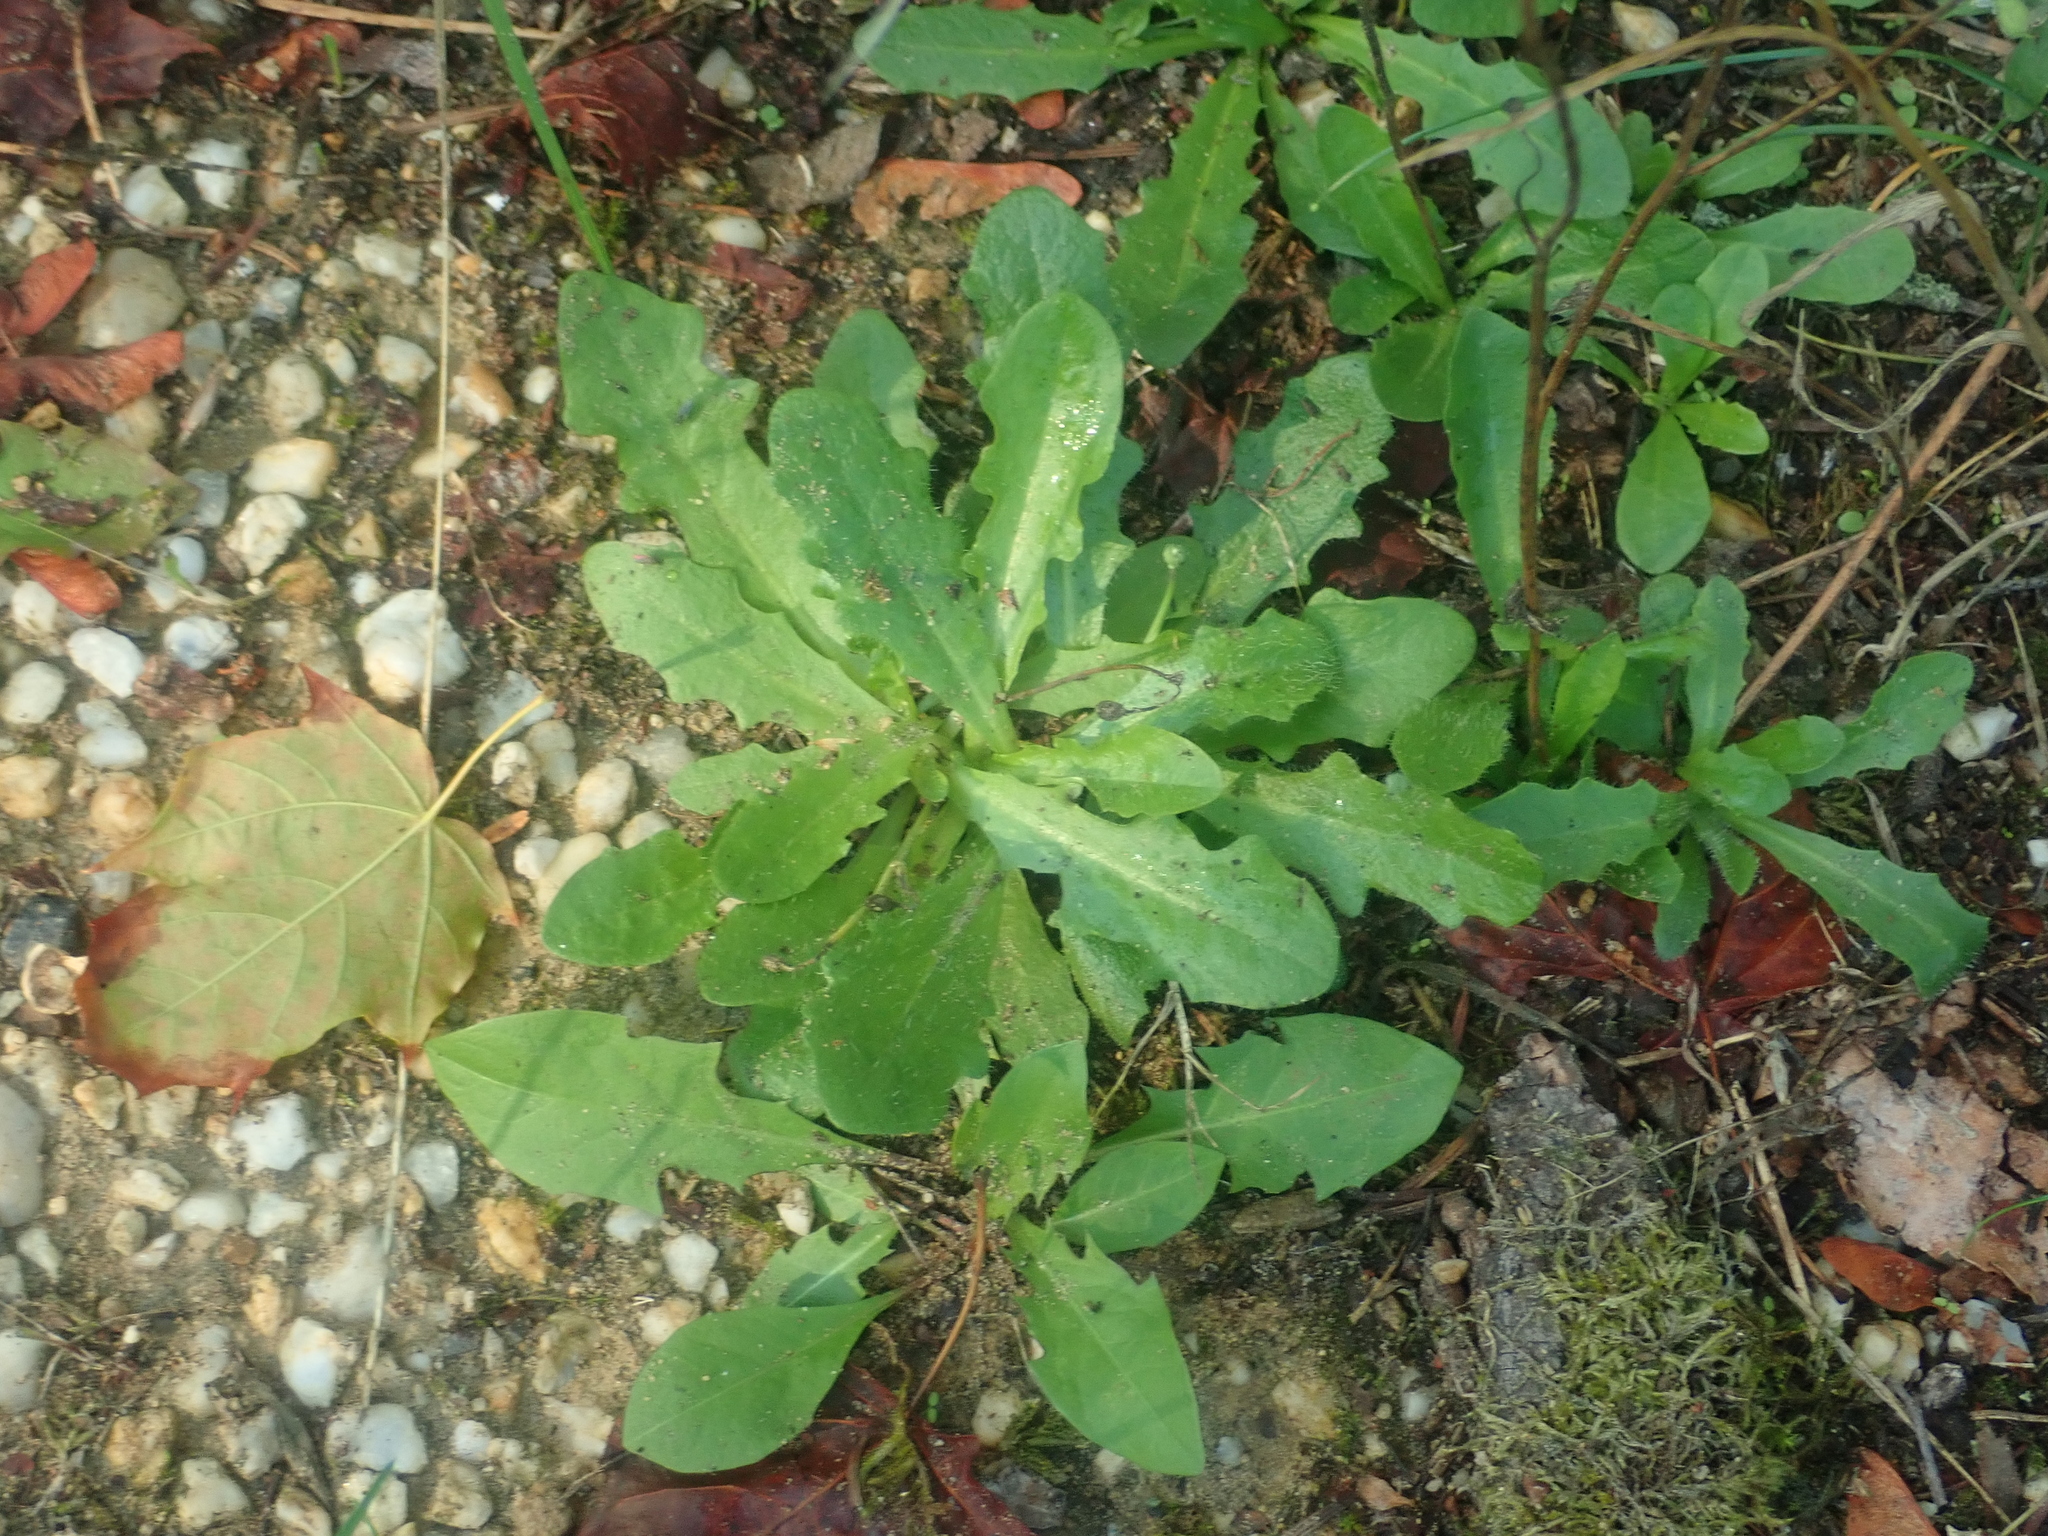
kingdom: Plantae
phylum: Tracheophyta
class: Magnoliopsida
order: Asterales
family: Asteraceae
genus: Hypochaeris
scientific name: Hypochaeris radicata
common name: Flatweed
